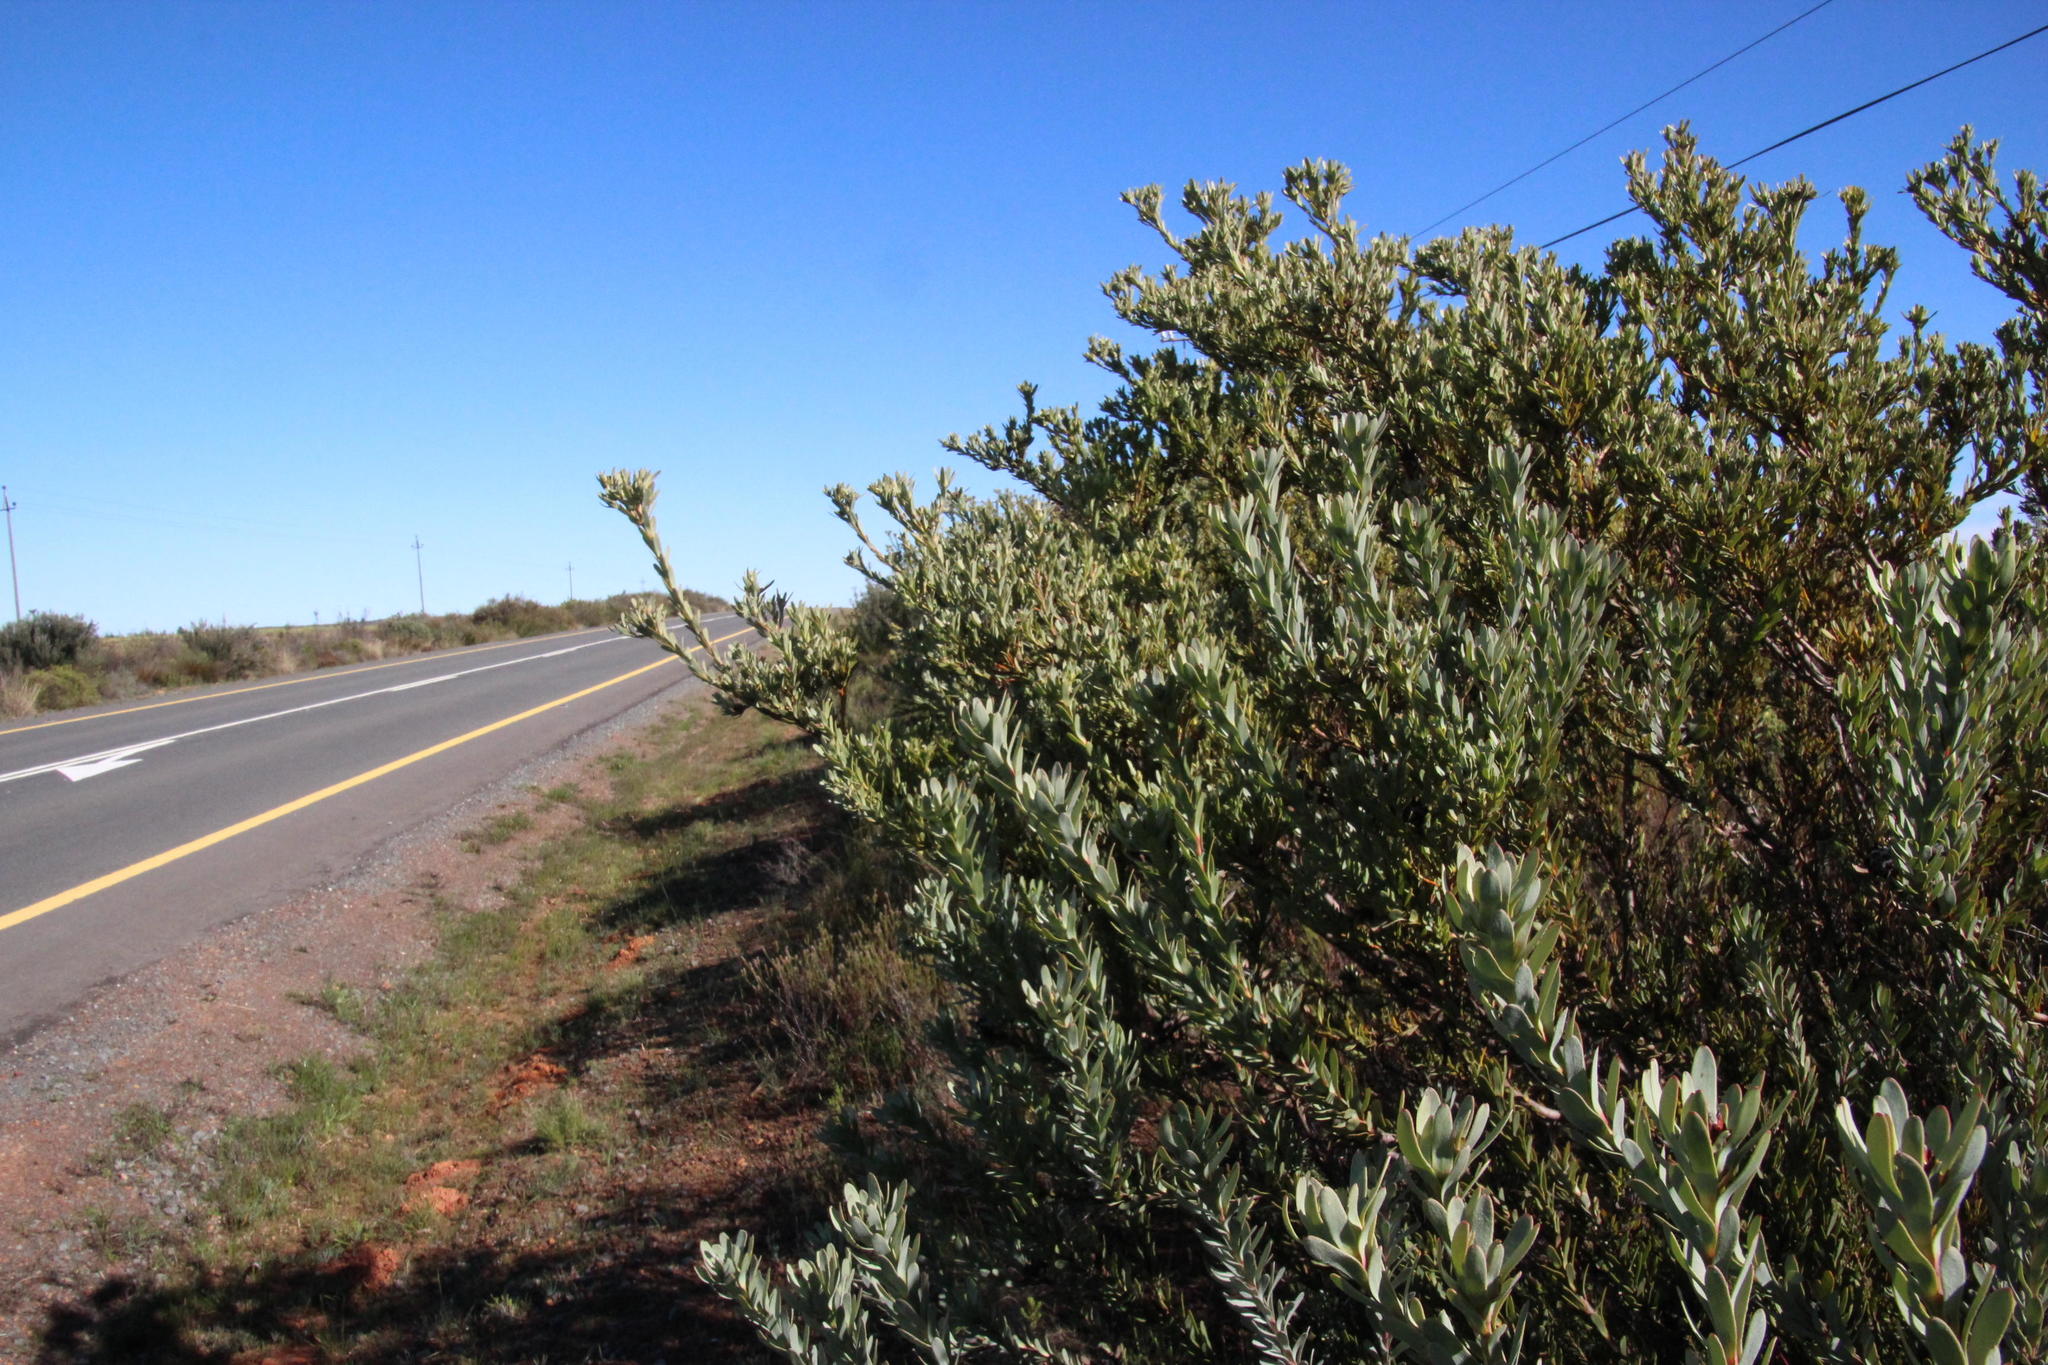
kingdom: Plantae
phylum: Tracheophyta
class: Magnoliopsida
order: Proteales
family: Proteaceae
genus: Leucadendron
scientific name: Leucadendron remotum
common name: Nieuwoudtville conebush
